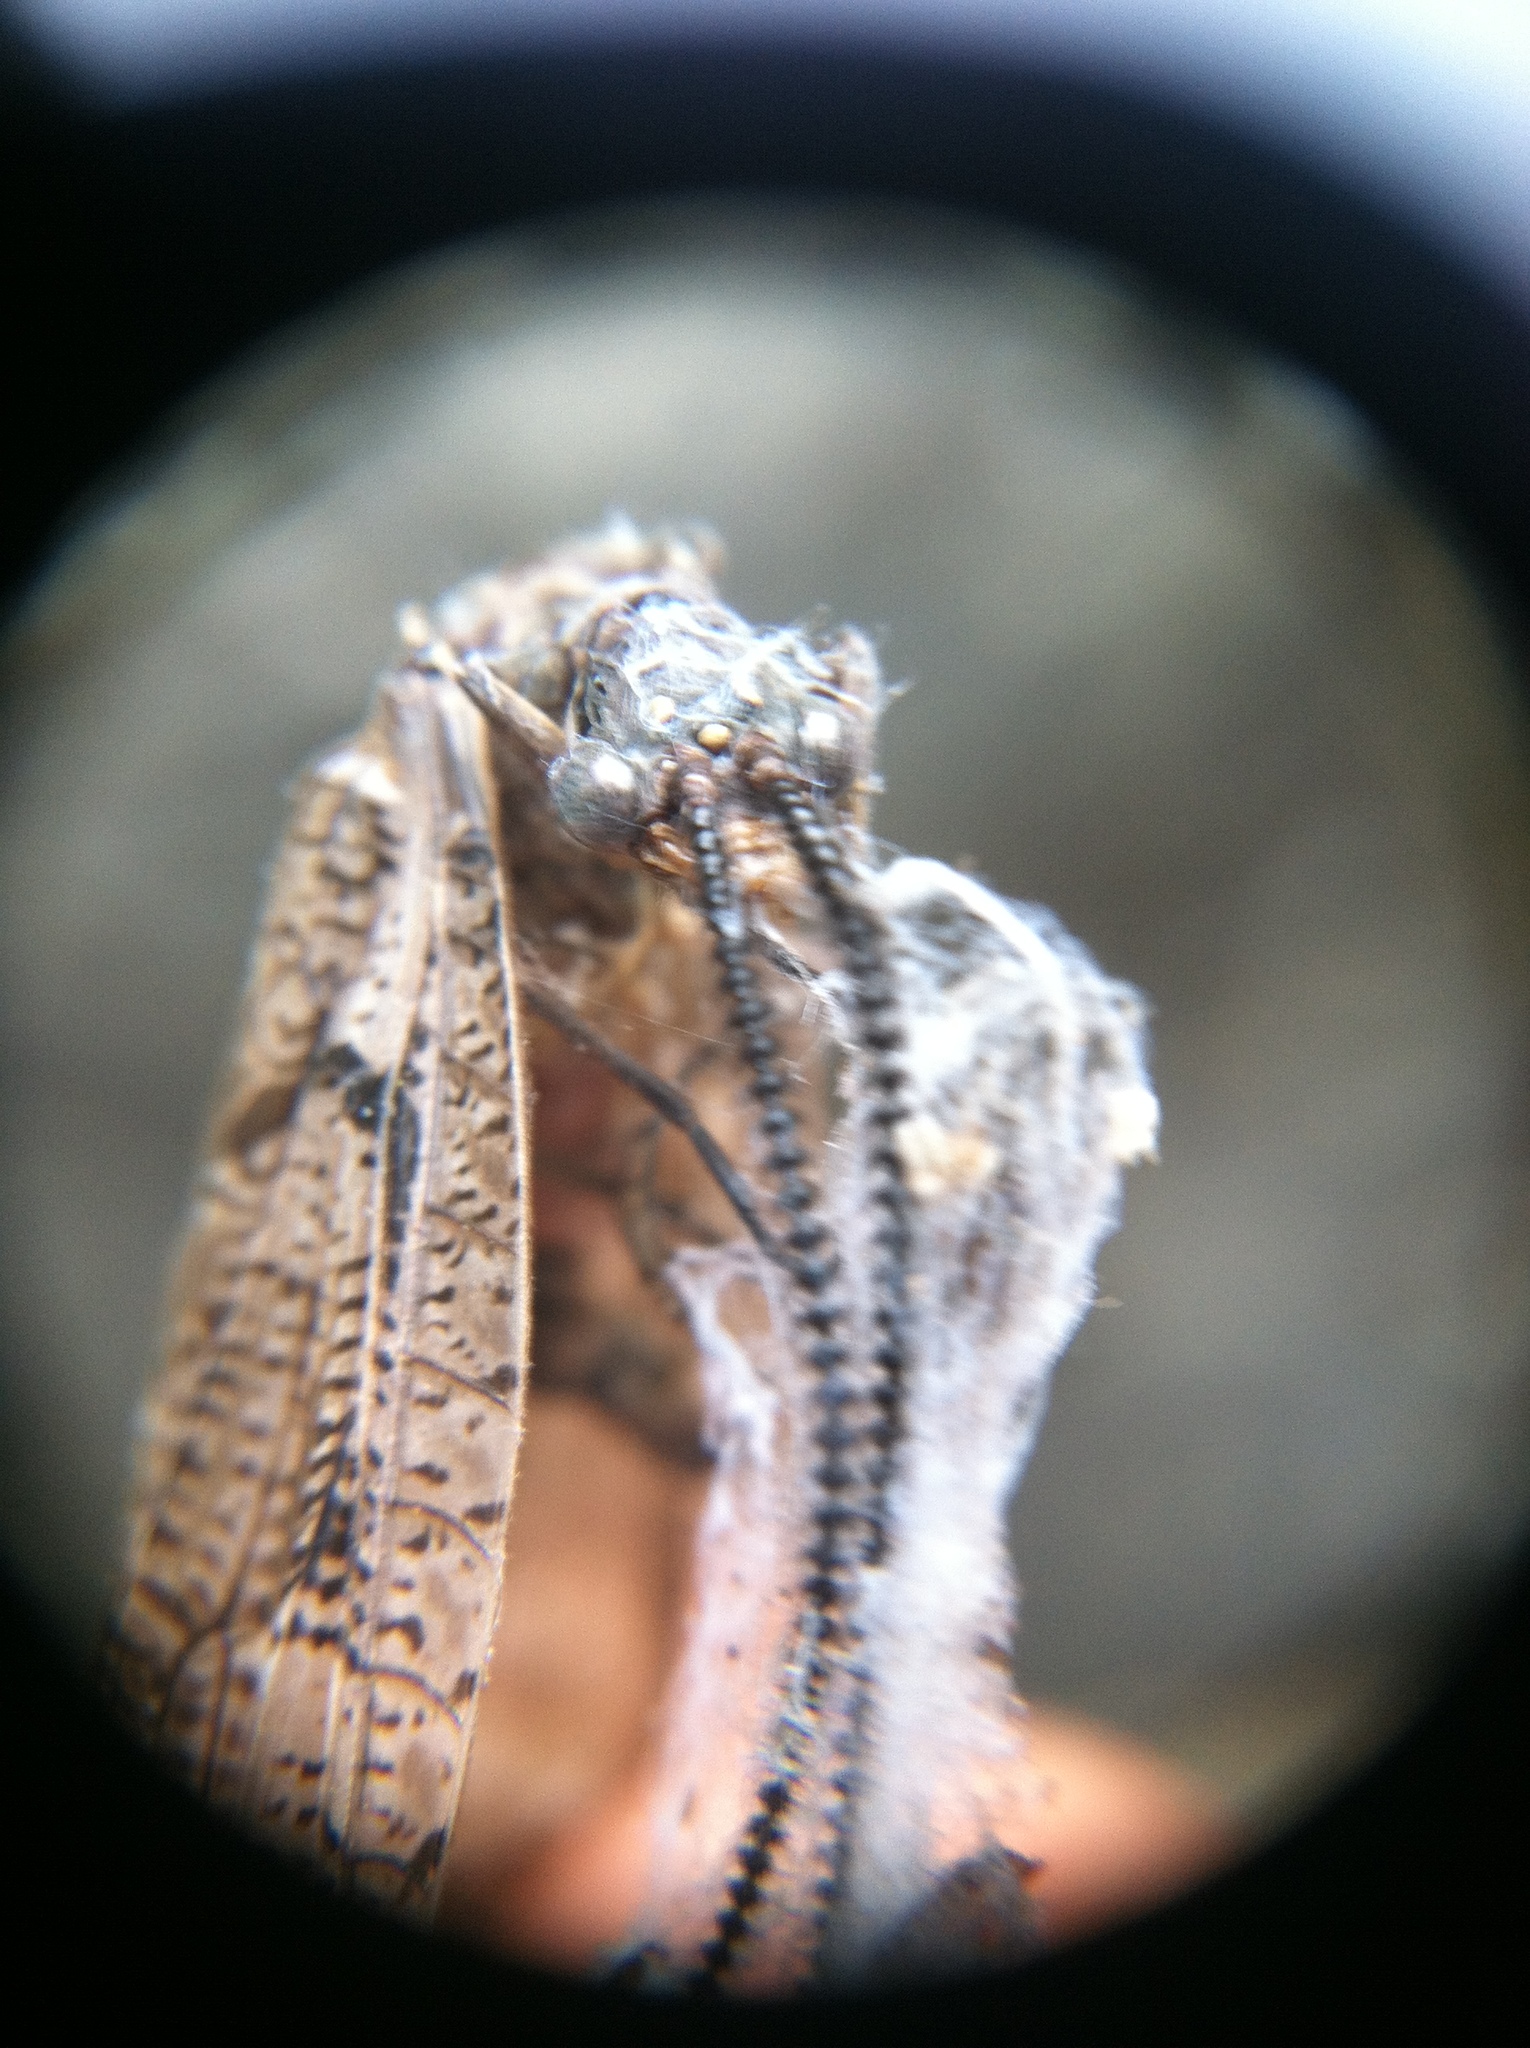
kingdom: Animalia
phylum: Arthropoda
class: Insecta
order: Megaloptera
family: Corydalidae
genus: Neohermes
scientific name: Neohermes californicus
